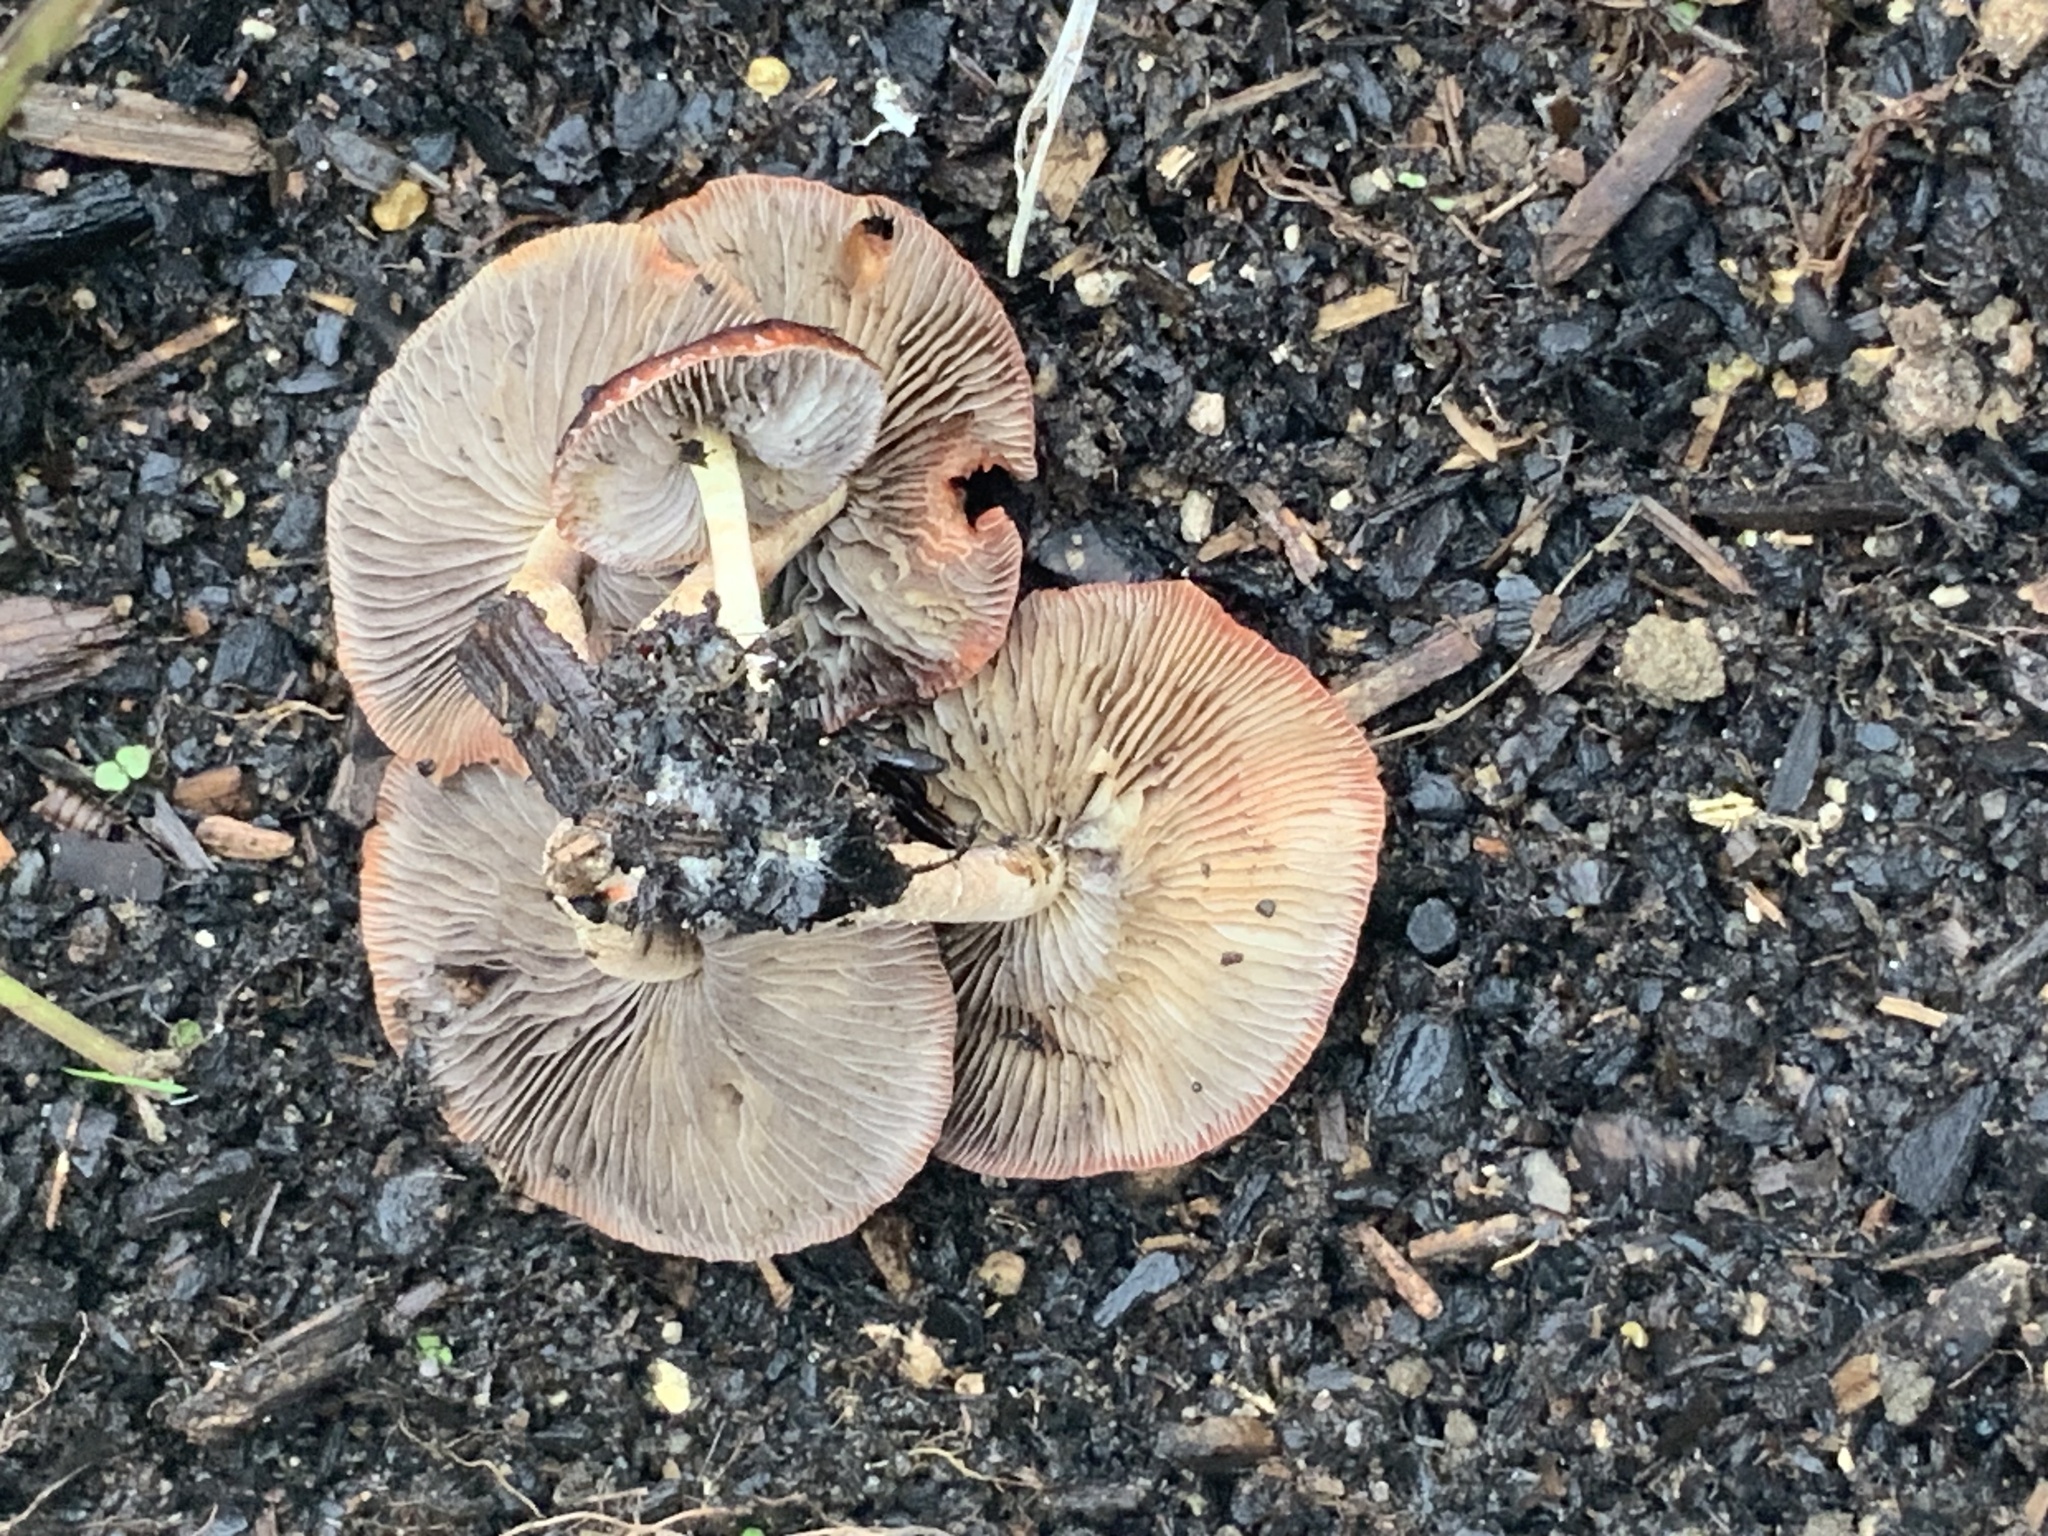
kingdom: Fungi
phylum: Basidiomycota
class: Agaricomycetes
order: Agaricales
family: Strophariaceae
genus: Leratiomyces
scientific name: Leratiomyces ceres
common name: Redlead roundhead
